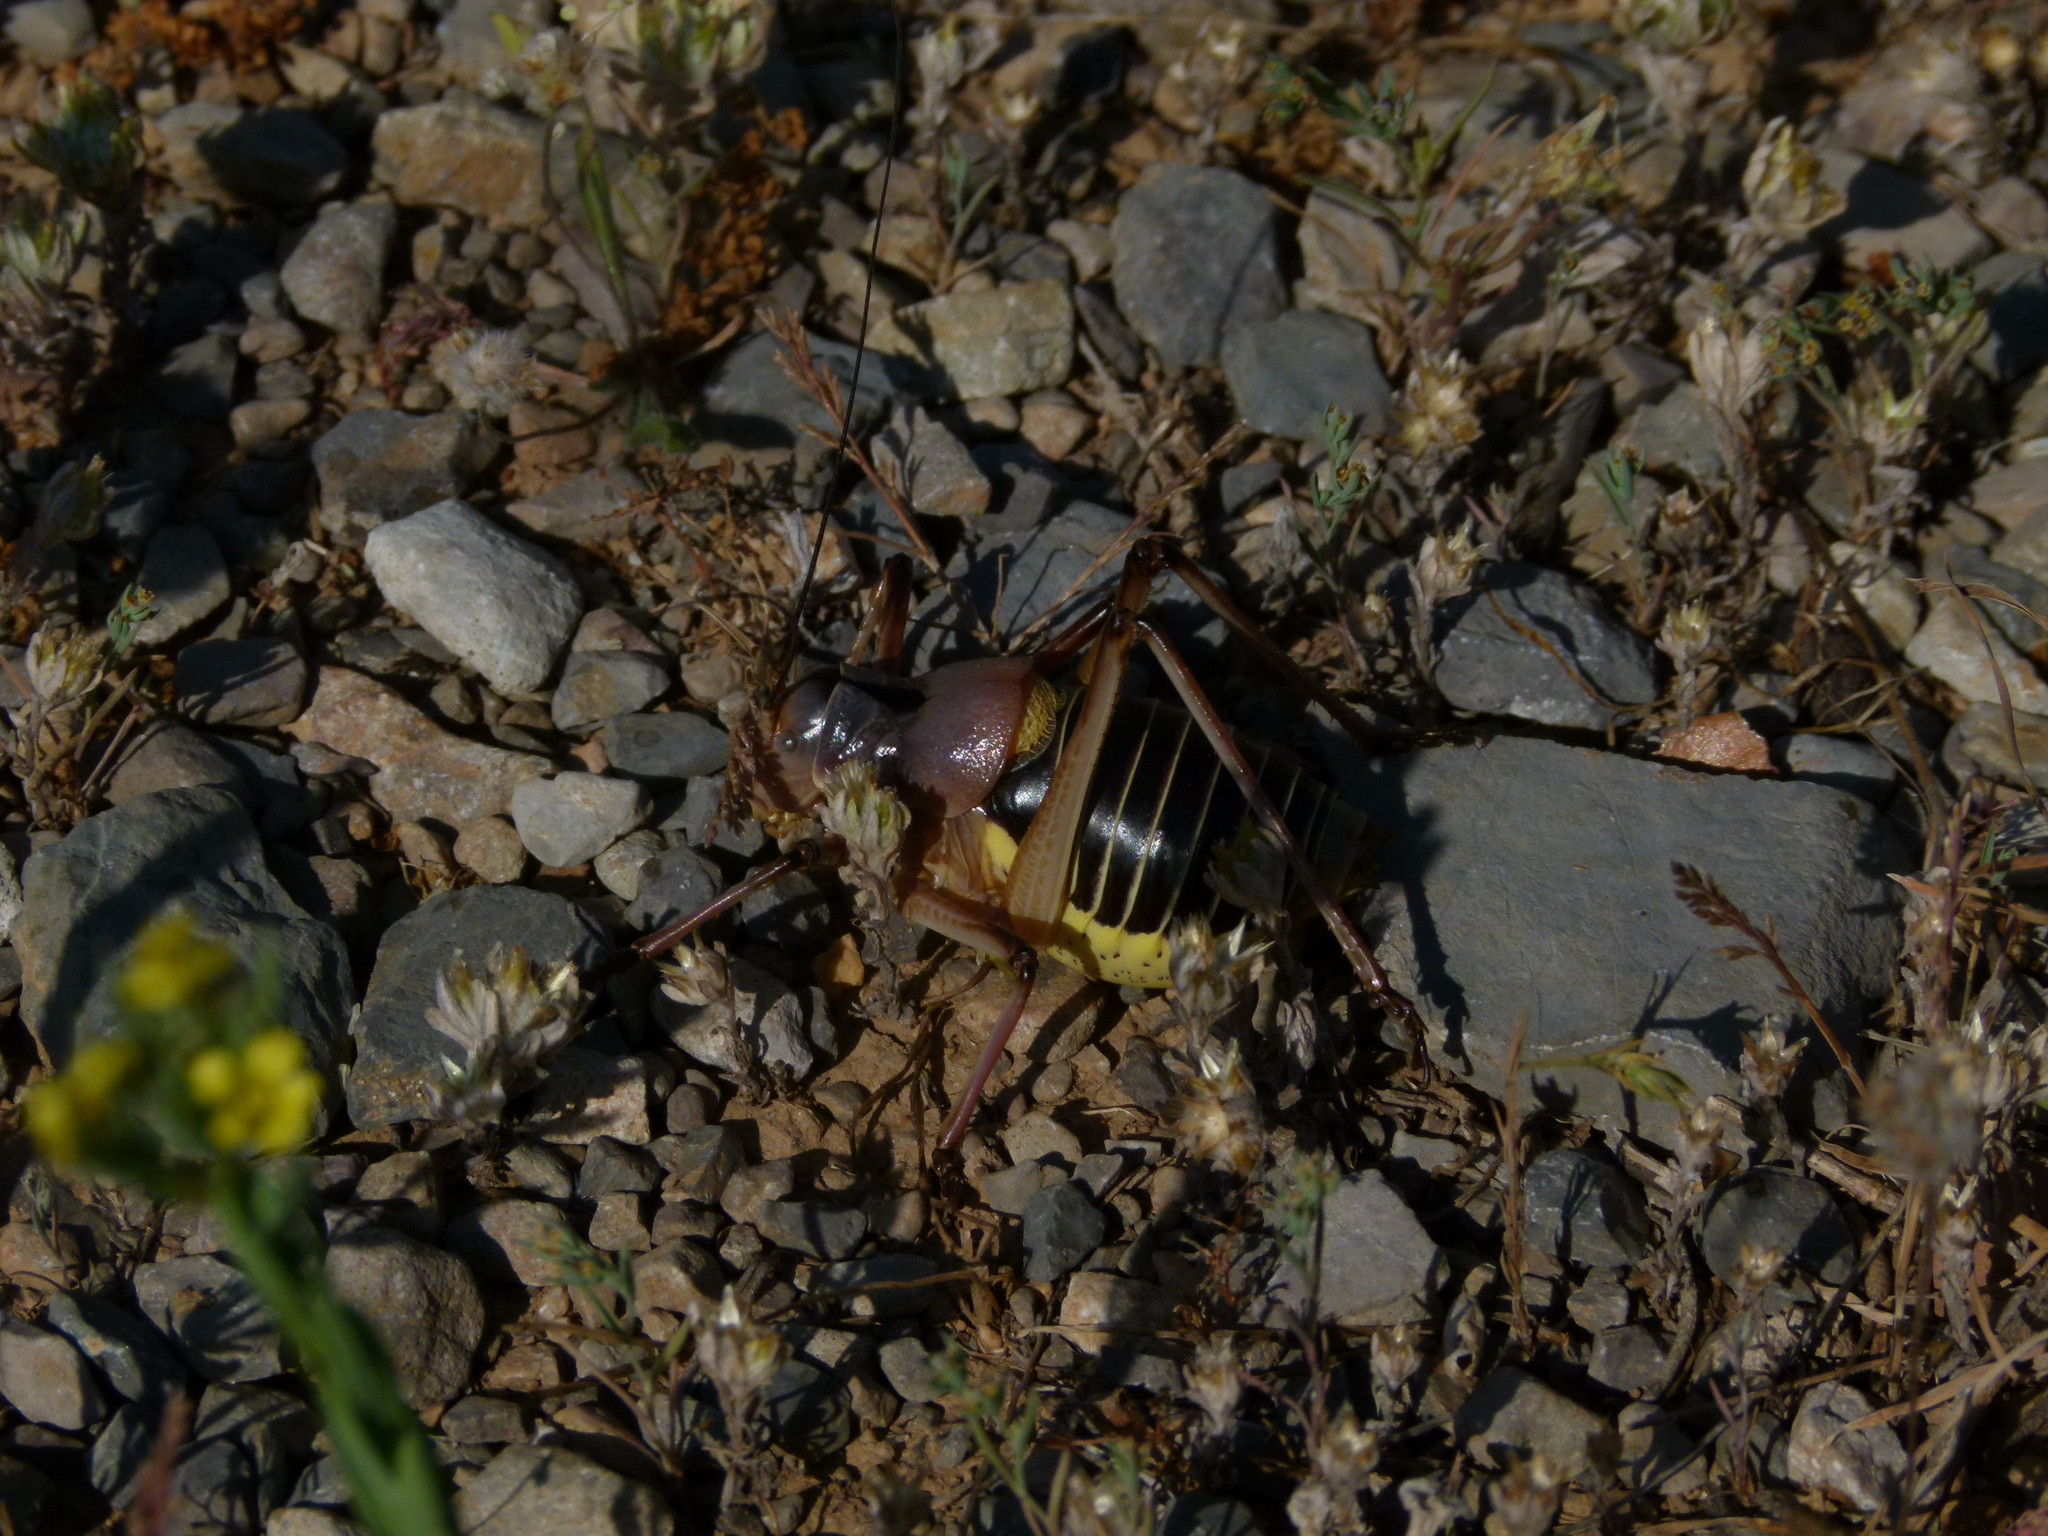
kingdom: Animalia
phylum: Arthropoda
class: Insecta
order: Orthoptera
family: Tettigoniidae
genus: Ephippiger
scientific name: Ephippiger diurnus
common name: Western saddle bush-cricket
